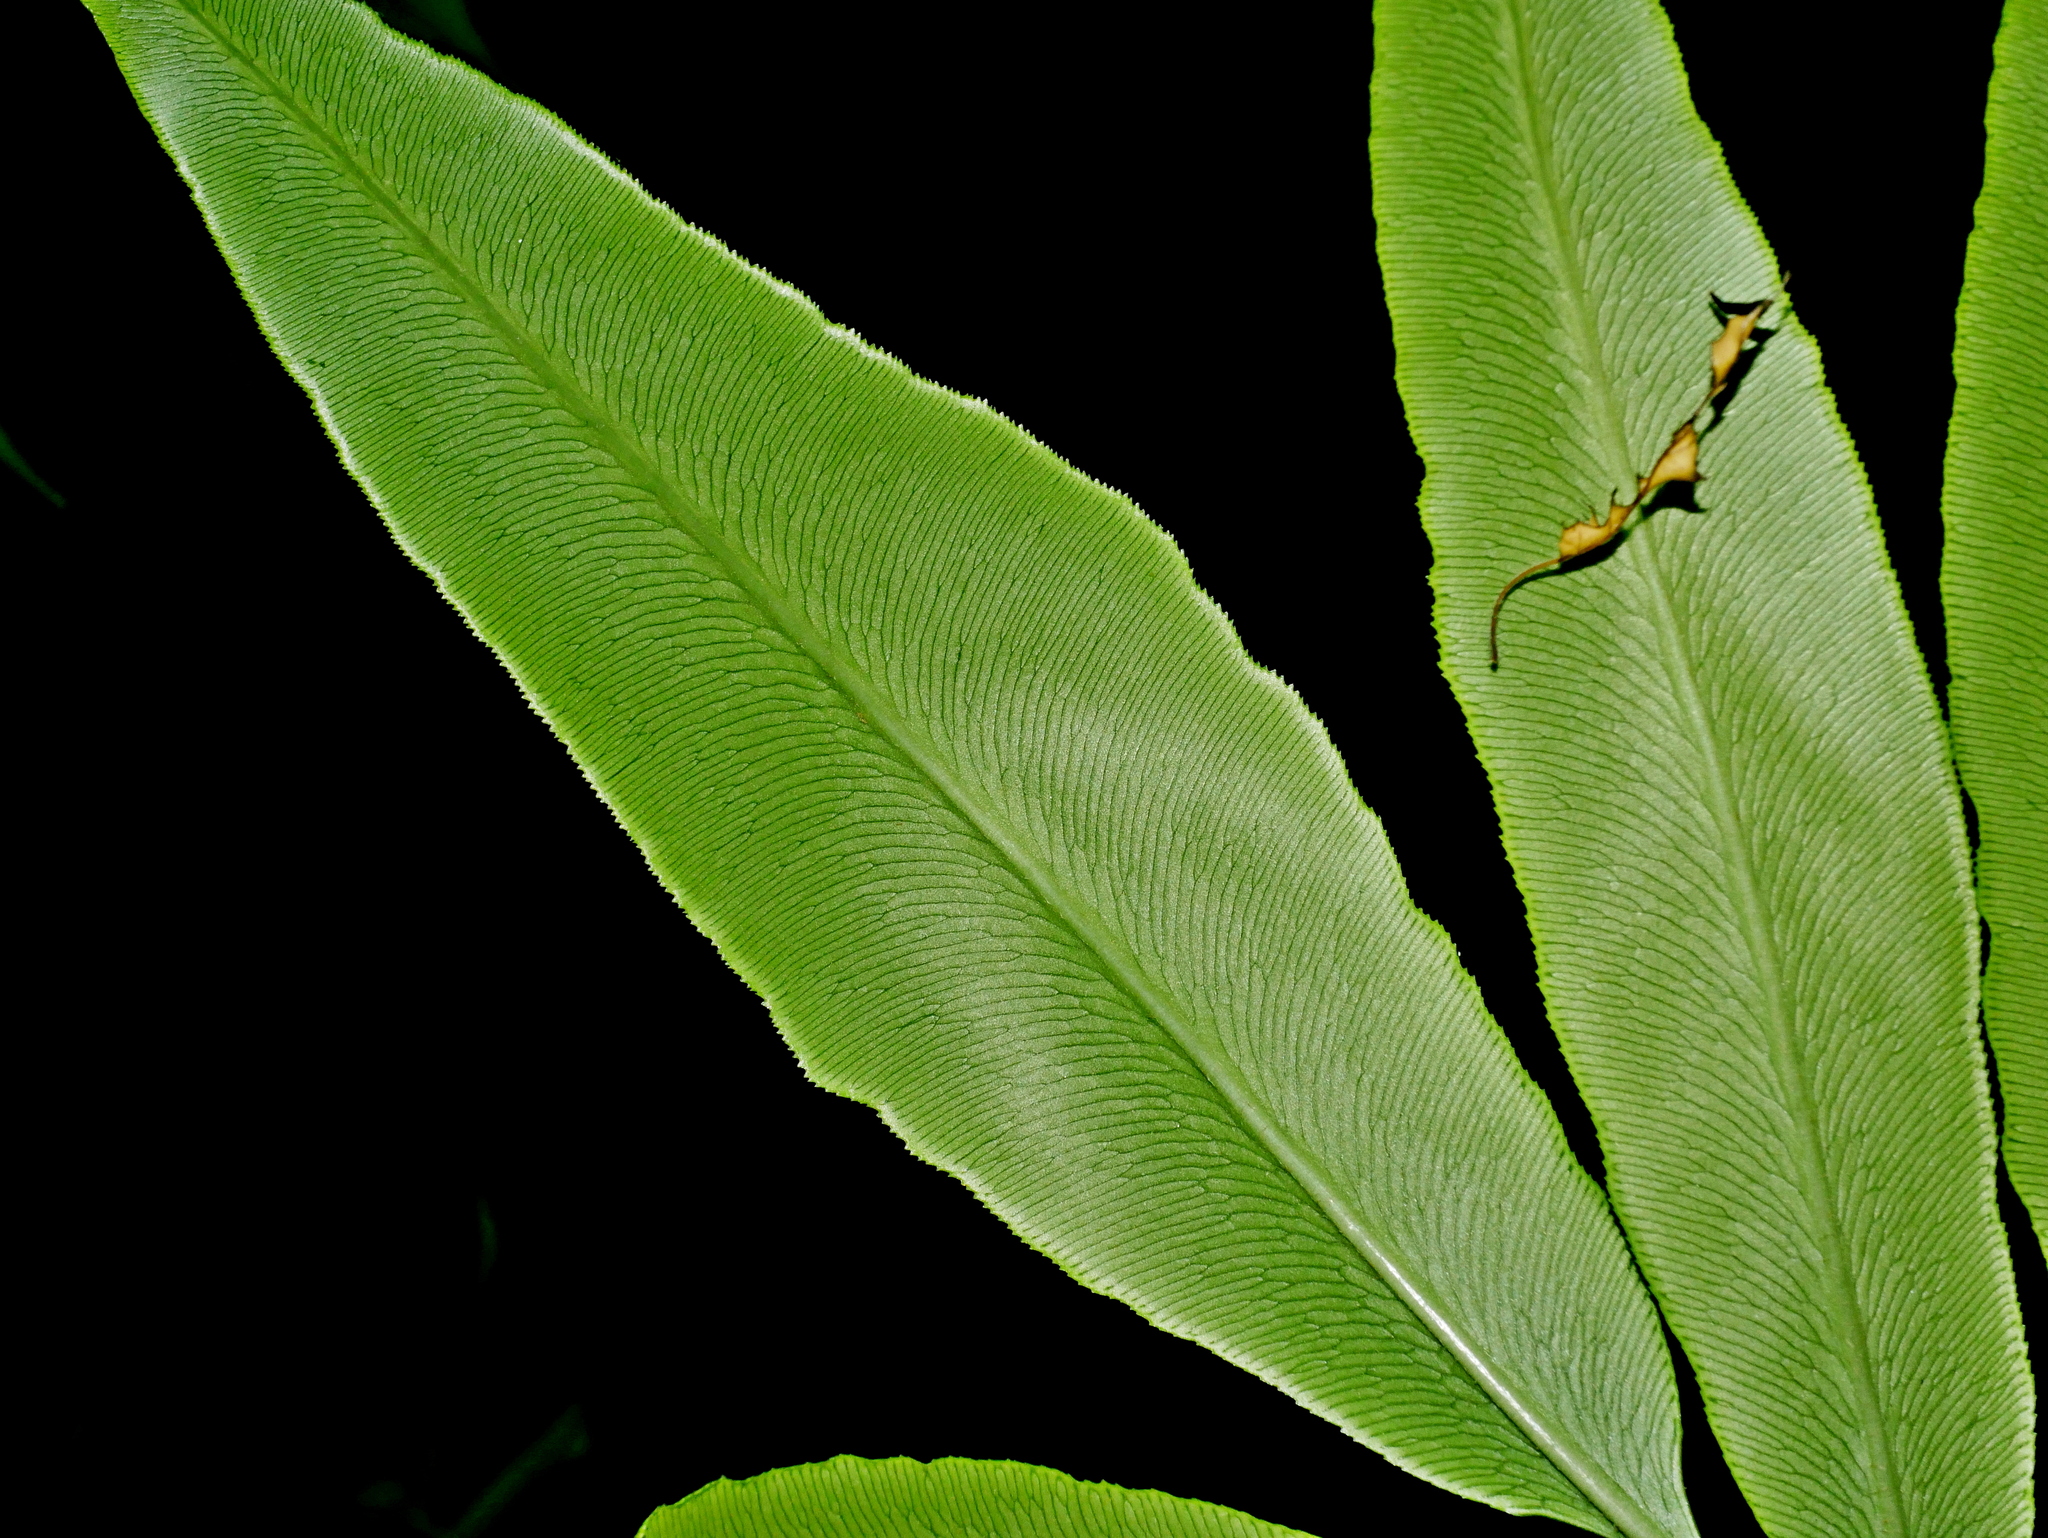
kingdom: Plantae
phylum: Tracheophyta
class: Polypodiopsida
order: Polypodiales
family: Pteridaceae
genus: Coniogramme
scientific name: Coniogramme japonica
